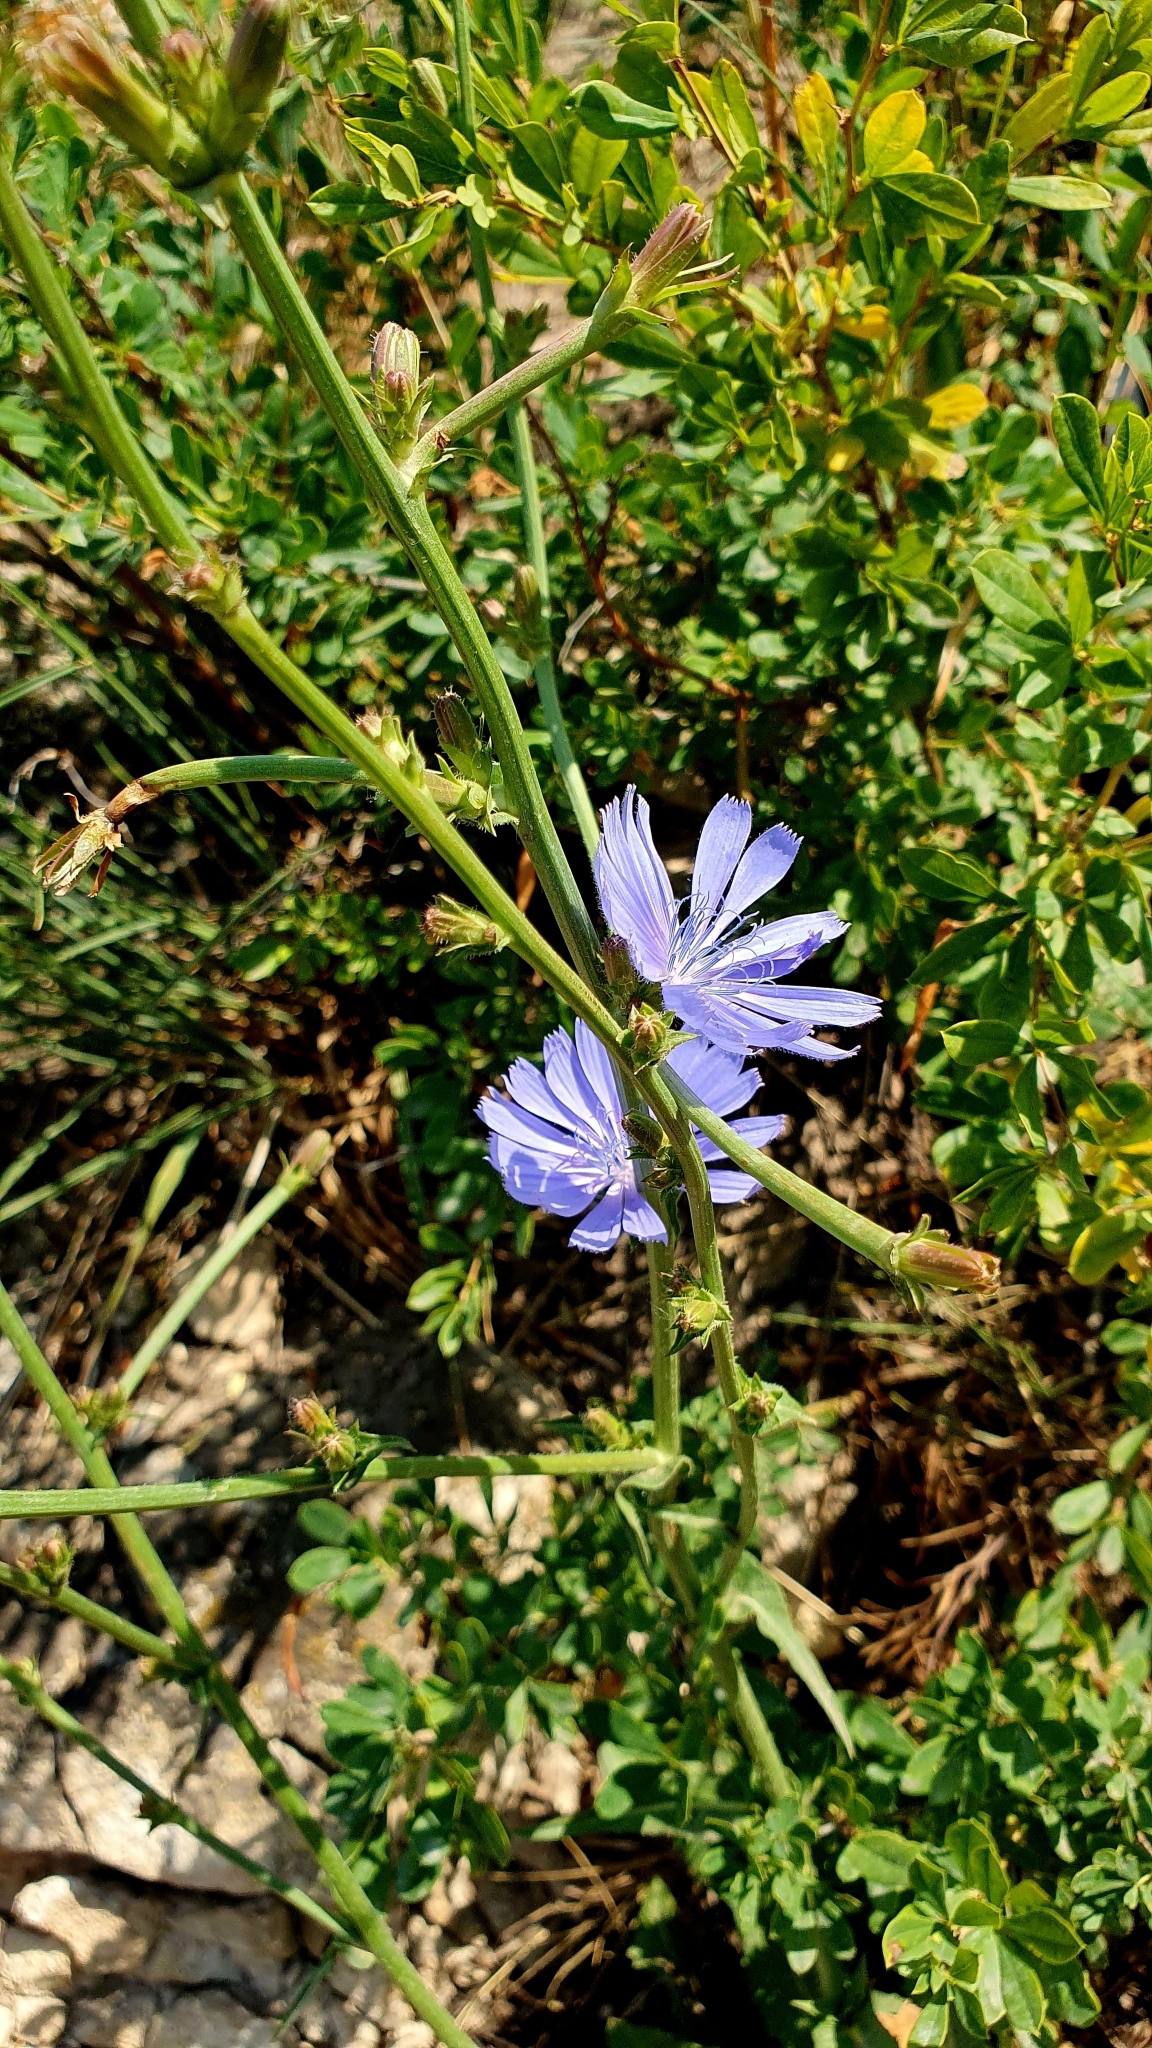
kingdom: Plantae
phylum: Tracheophyta
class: Magnoliopsida
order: Asterales
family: Asteraceae
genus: Cichorium
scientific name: Cichorium intybus
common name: Chicory
